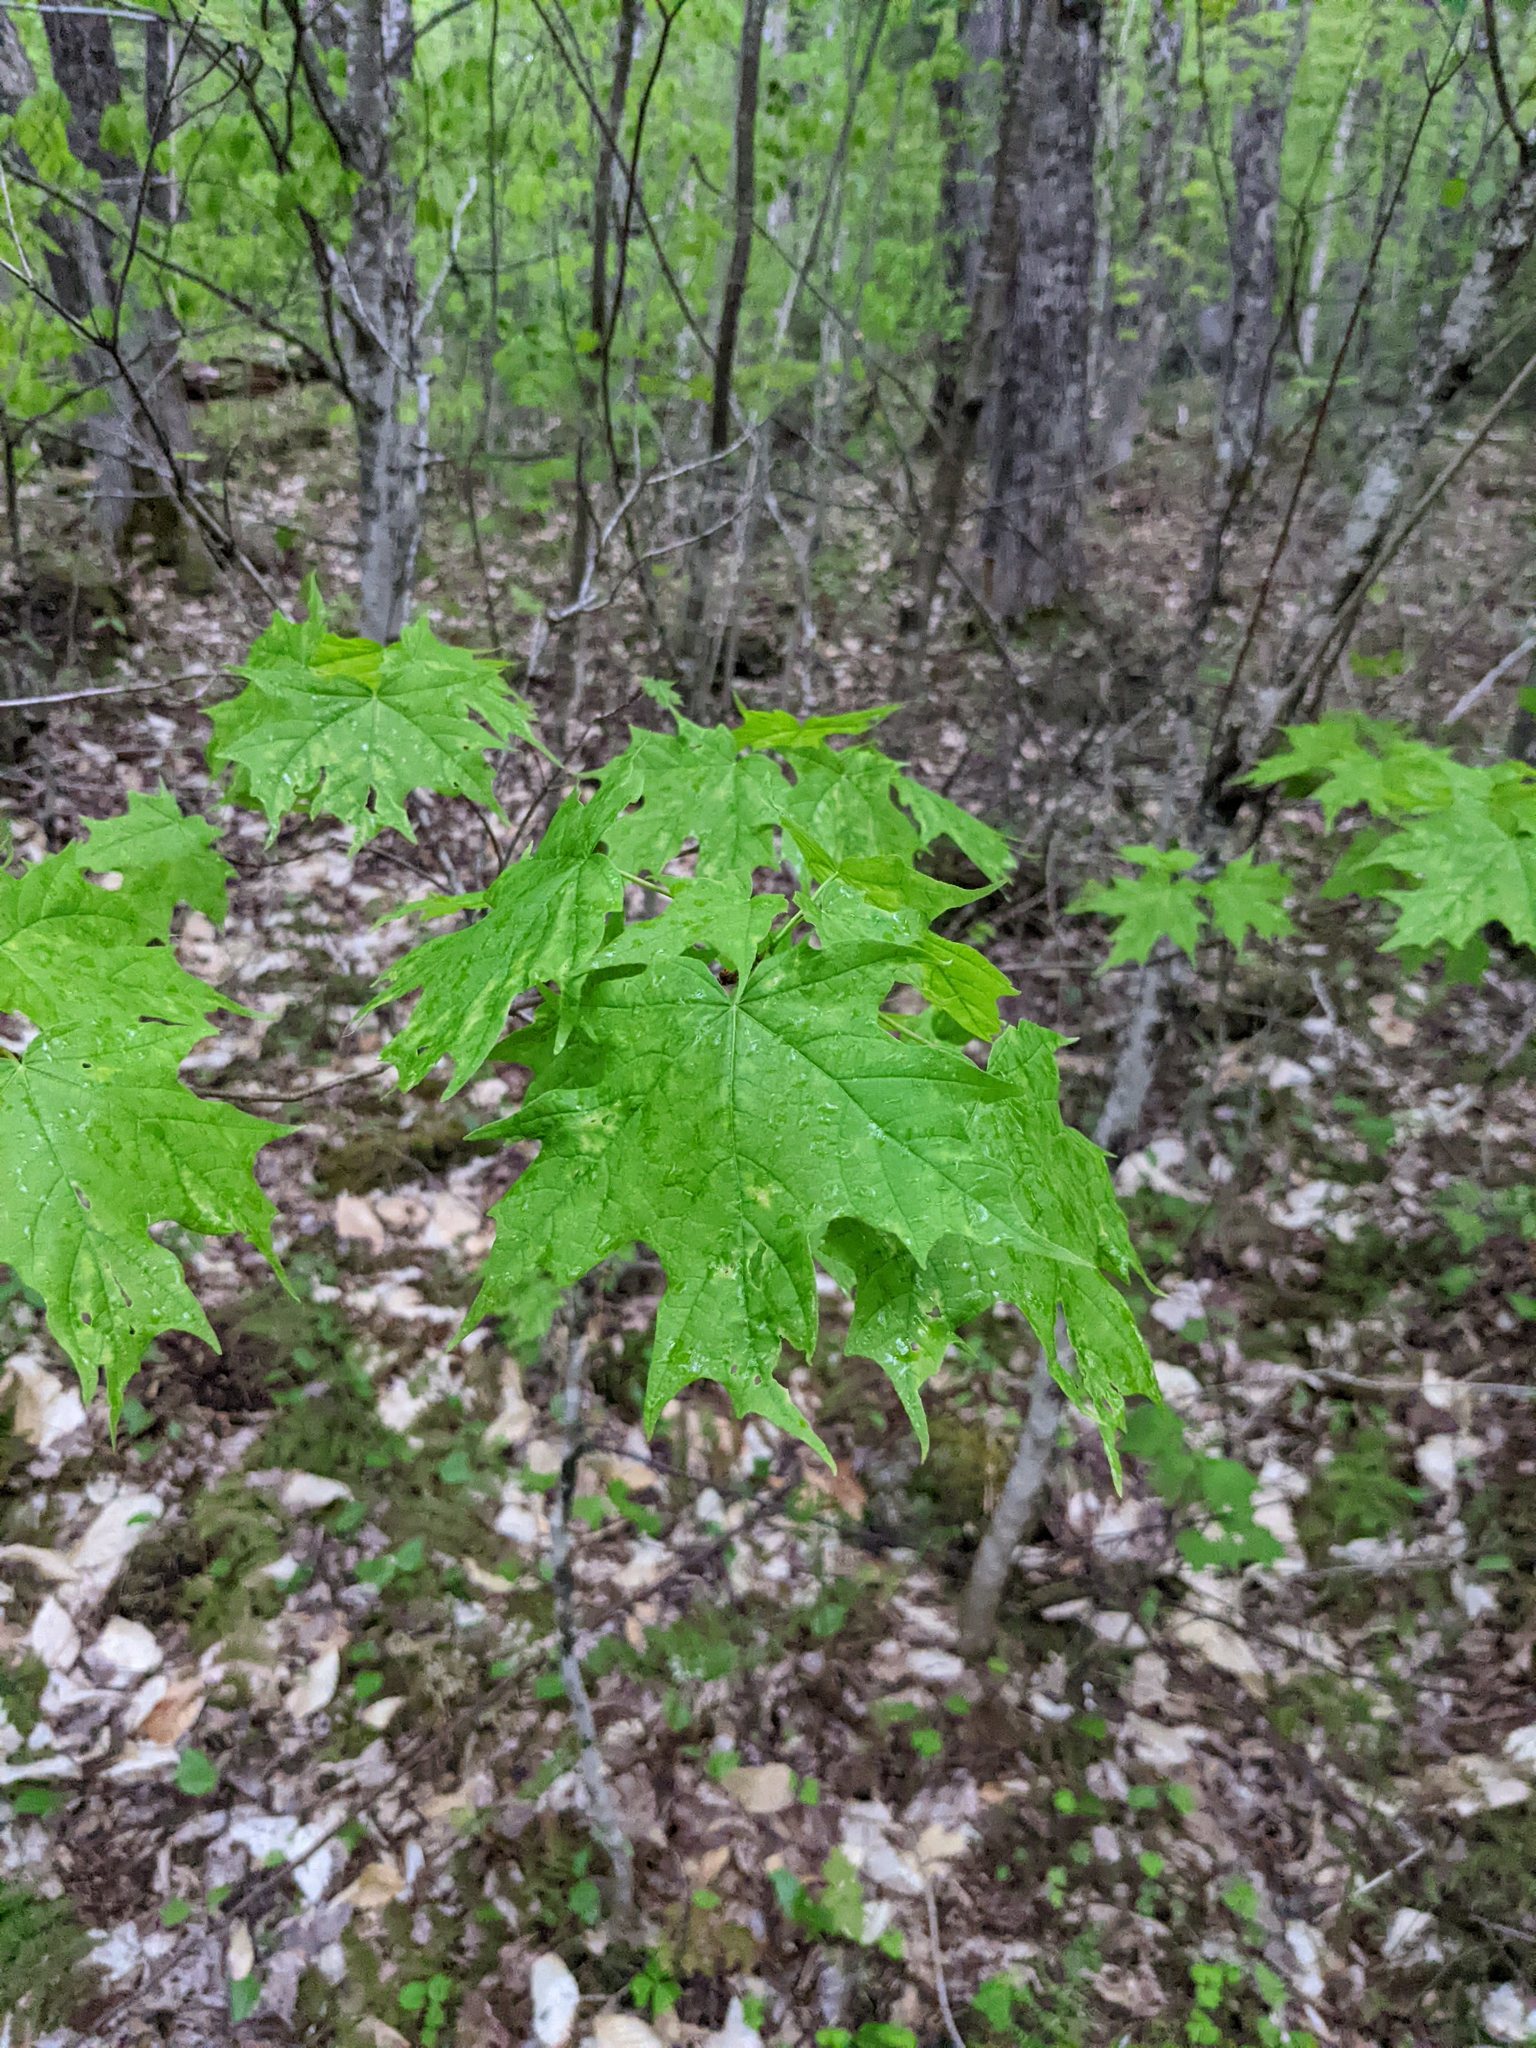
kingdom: Plantae
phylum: Tracheophyta
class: Magnoliopsida
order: Sapindales
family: Sapindaceae
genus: Acer
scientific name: Acer saccharum
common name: Sugar maple
